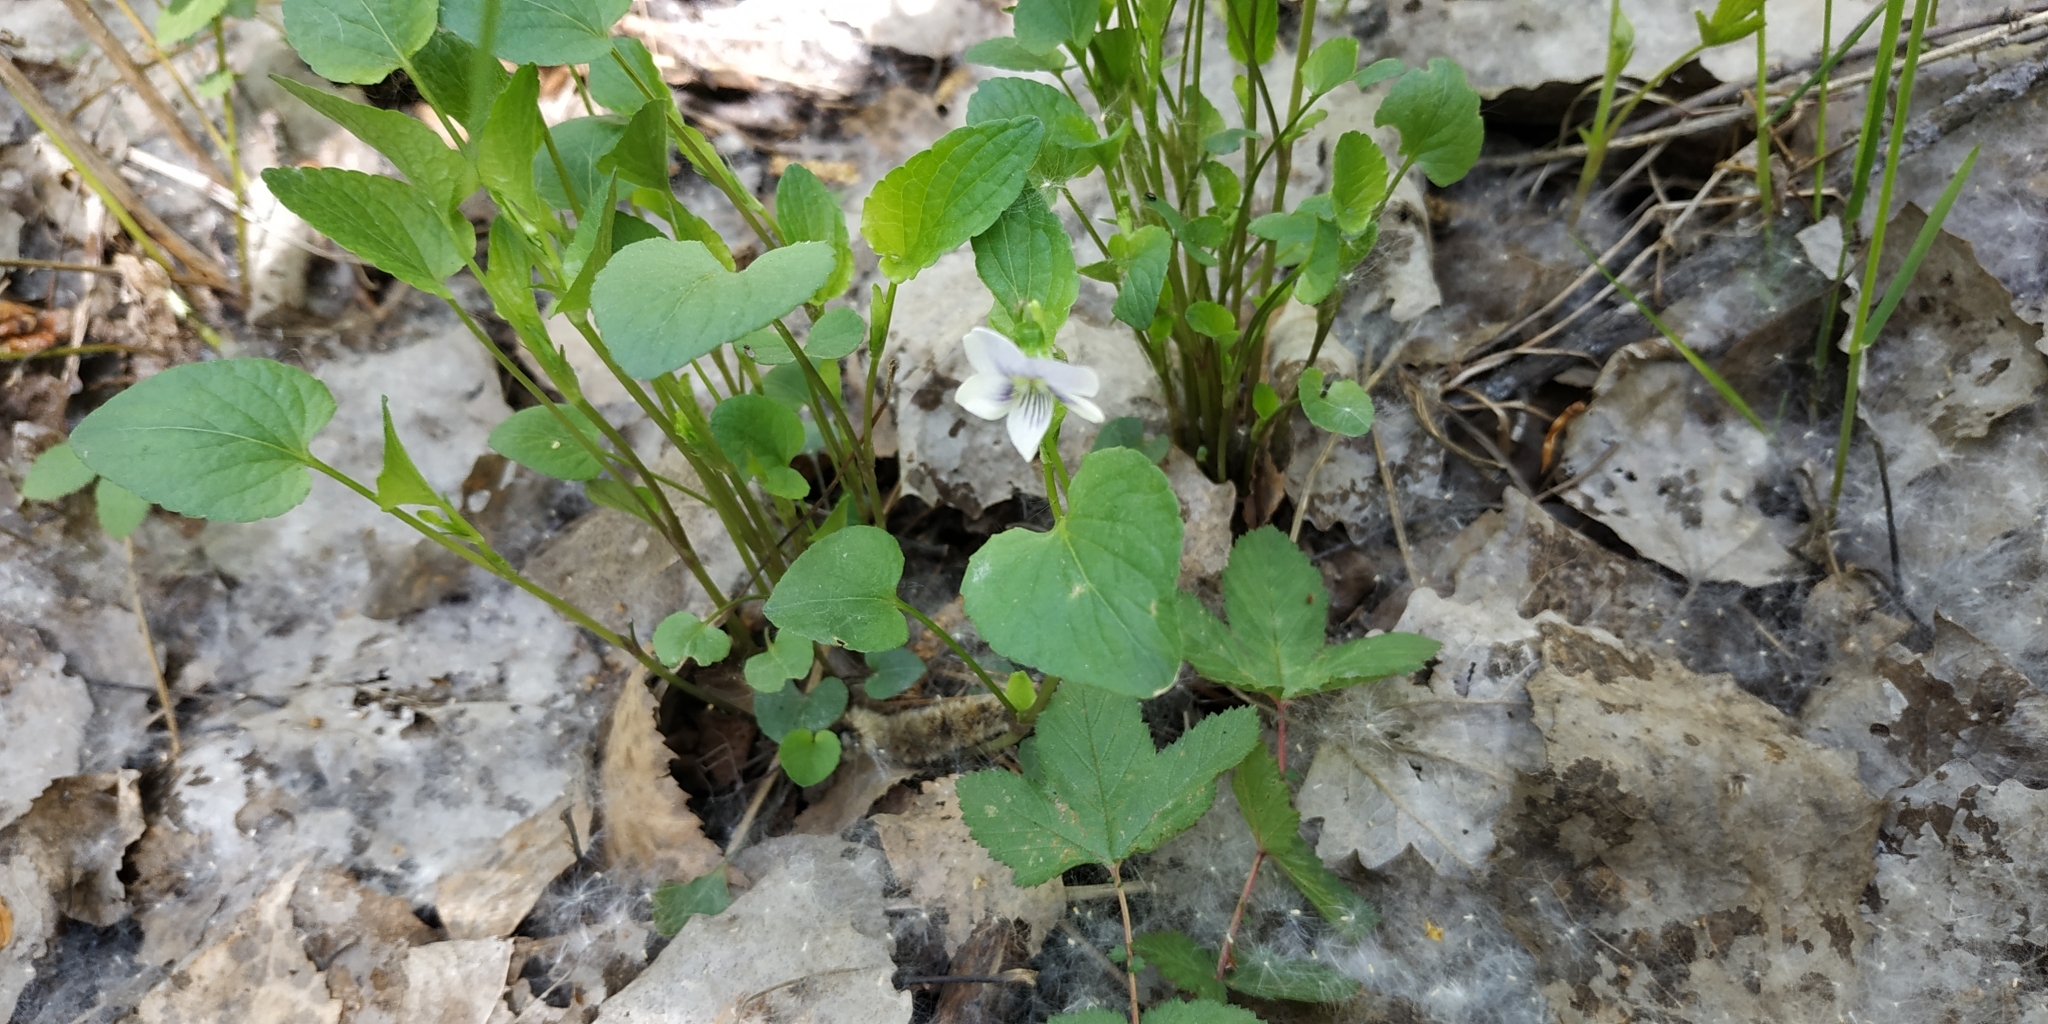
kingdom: Plantae
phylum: Tracheophyta
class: Magnoliopsida
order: Malpighiales
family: Violaceae
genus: Viola
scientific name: Viola canina
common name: Heath dog-violet
